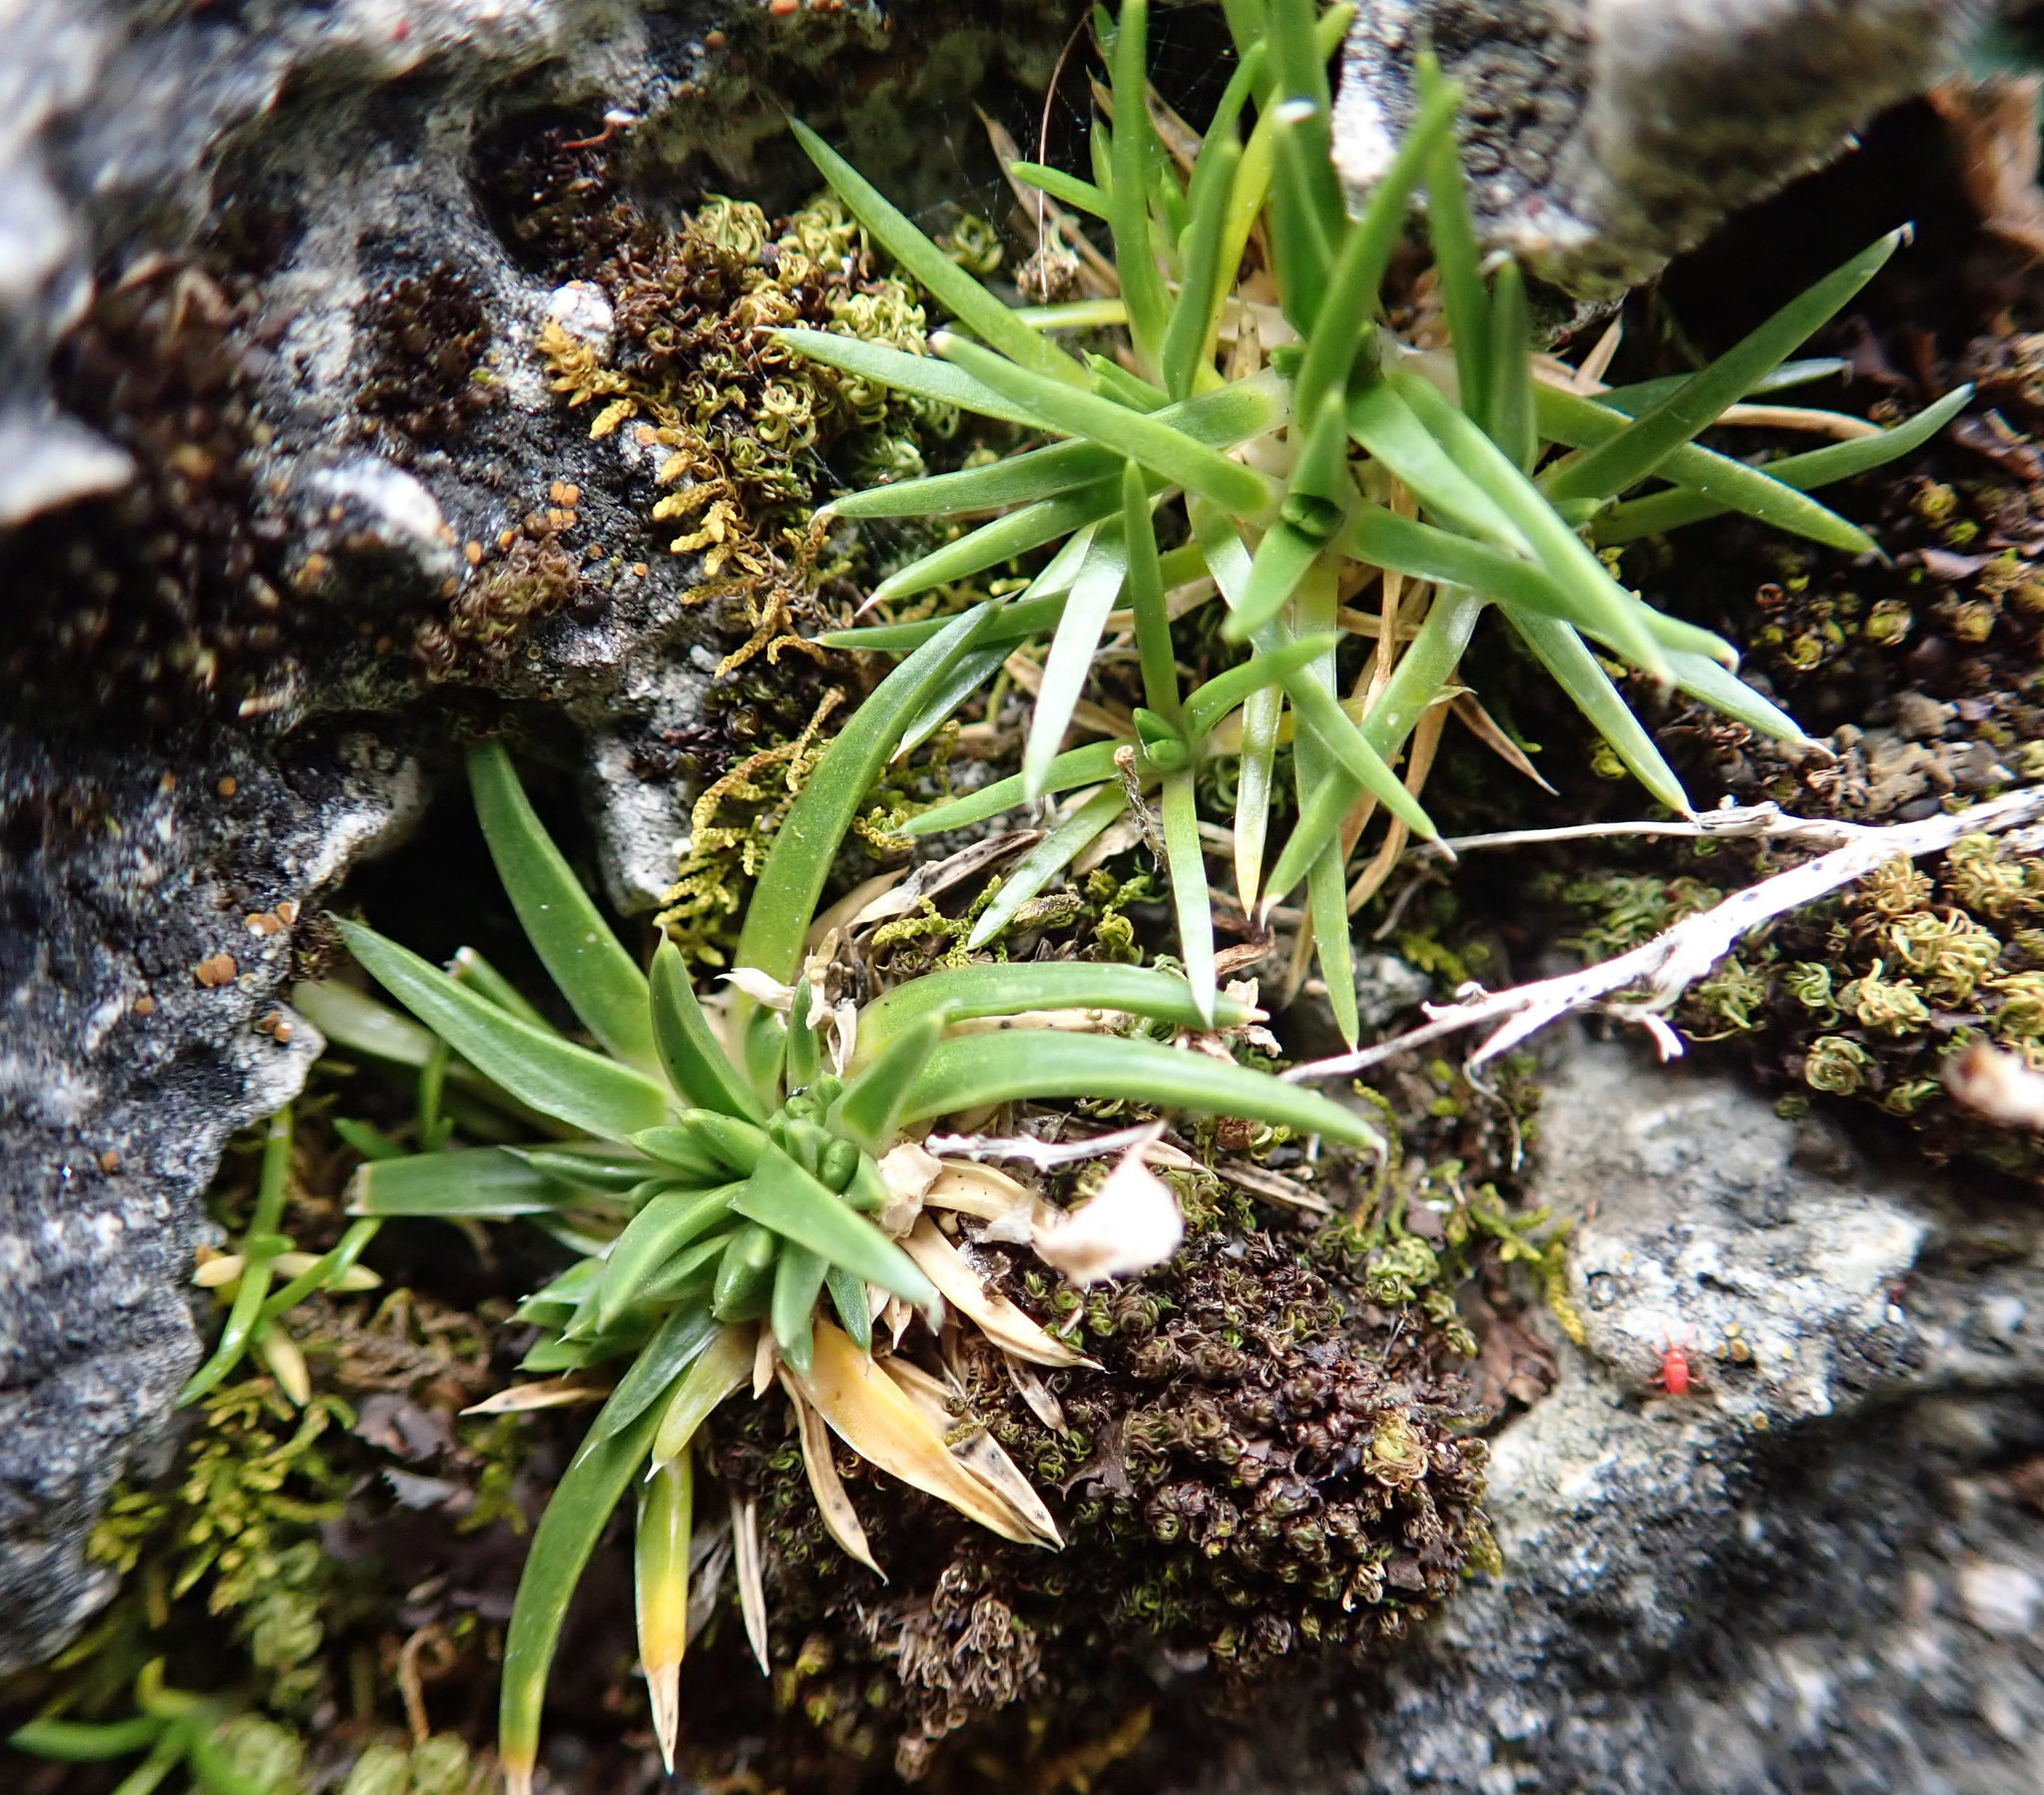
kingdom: Plantae
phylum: Tracheophyta
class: Magnoliopsida
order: Caryophyllales
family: Caryophyllaceae
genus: Colobanthus
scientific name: Colobanthus muelleri
